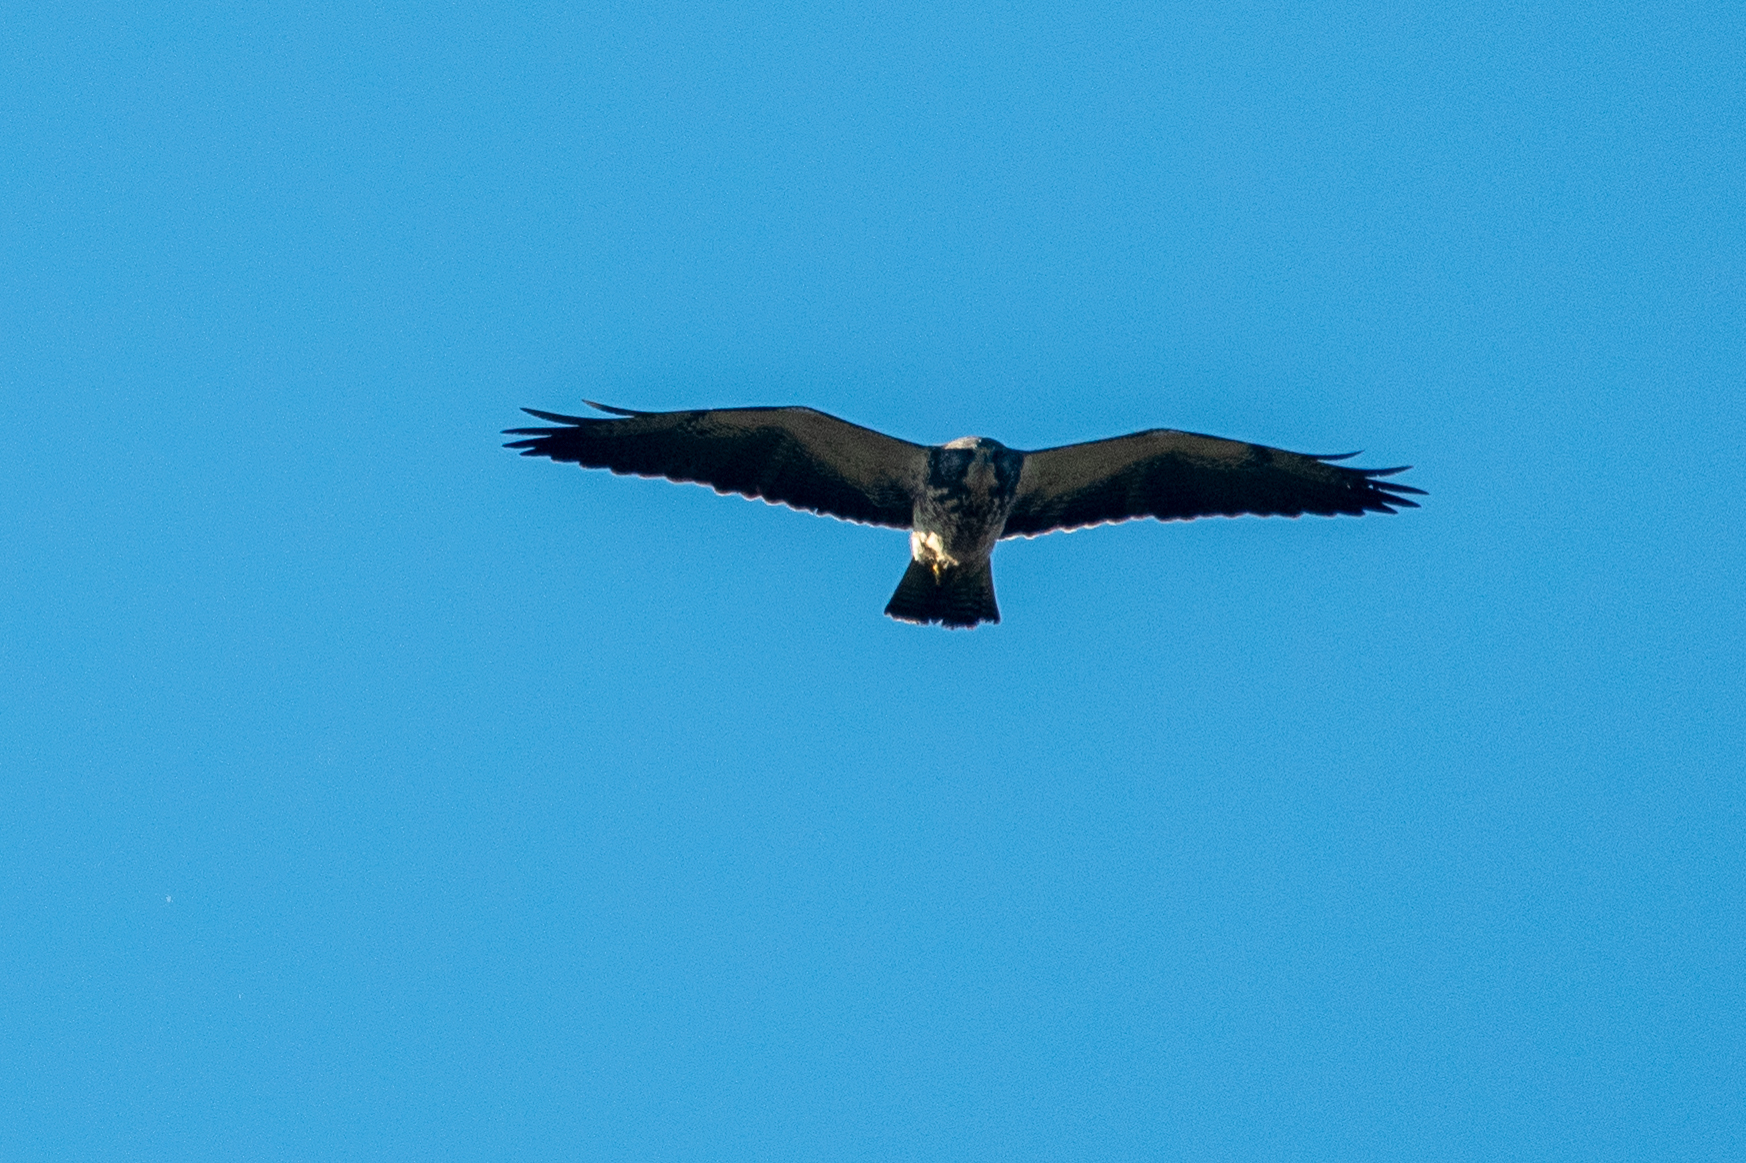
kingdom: Animalia
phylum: Chordata
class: Aves
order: Accipitriformes
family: Accipitridae
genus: Buteo
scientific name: Buteo swainsoni
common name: Swainson's hawk
